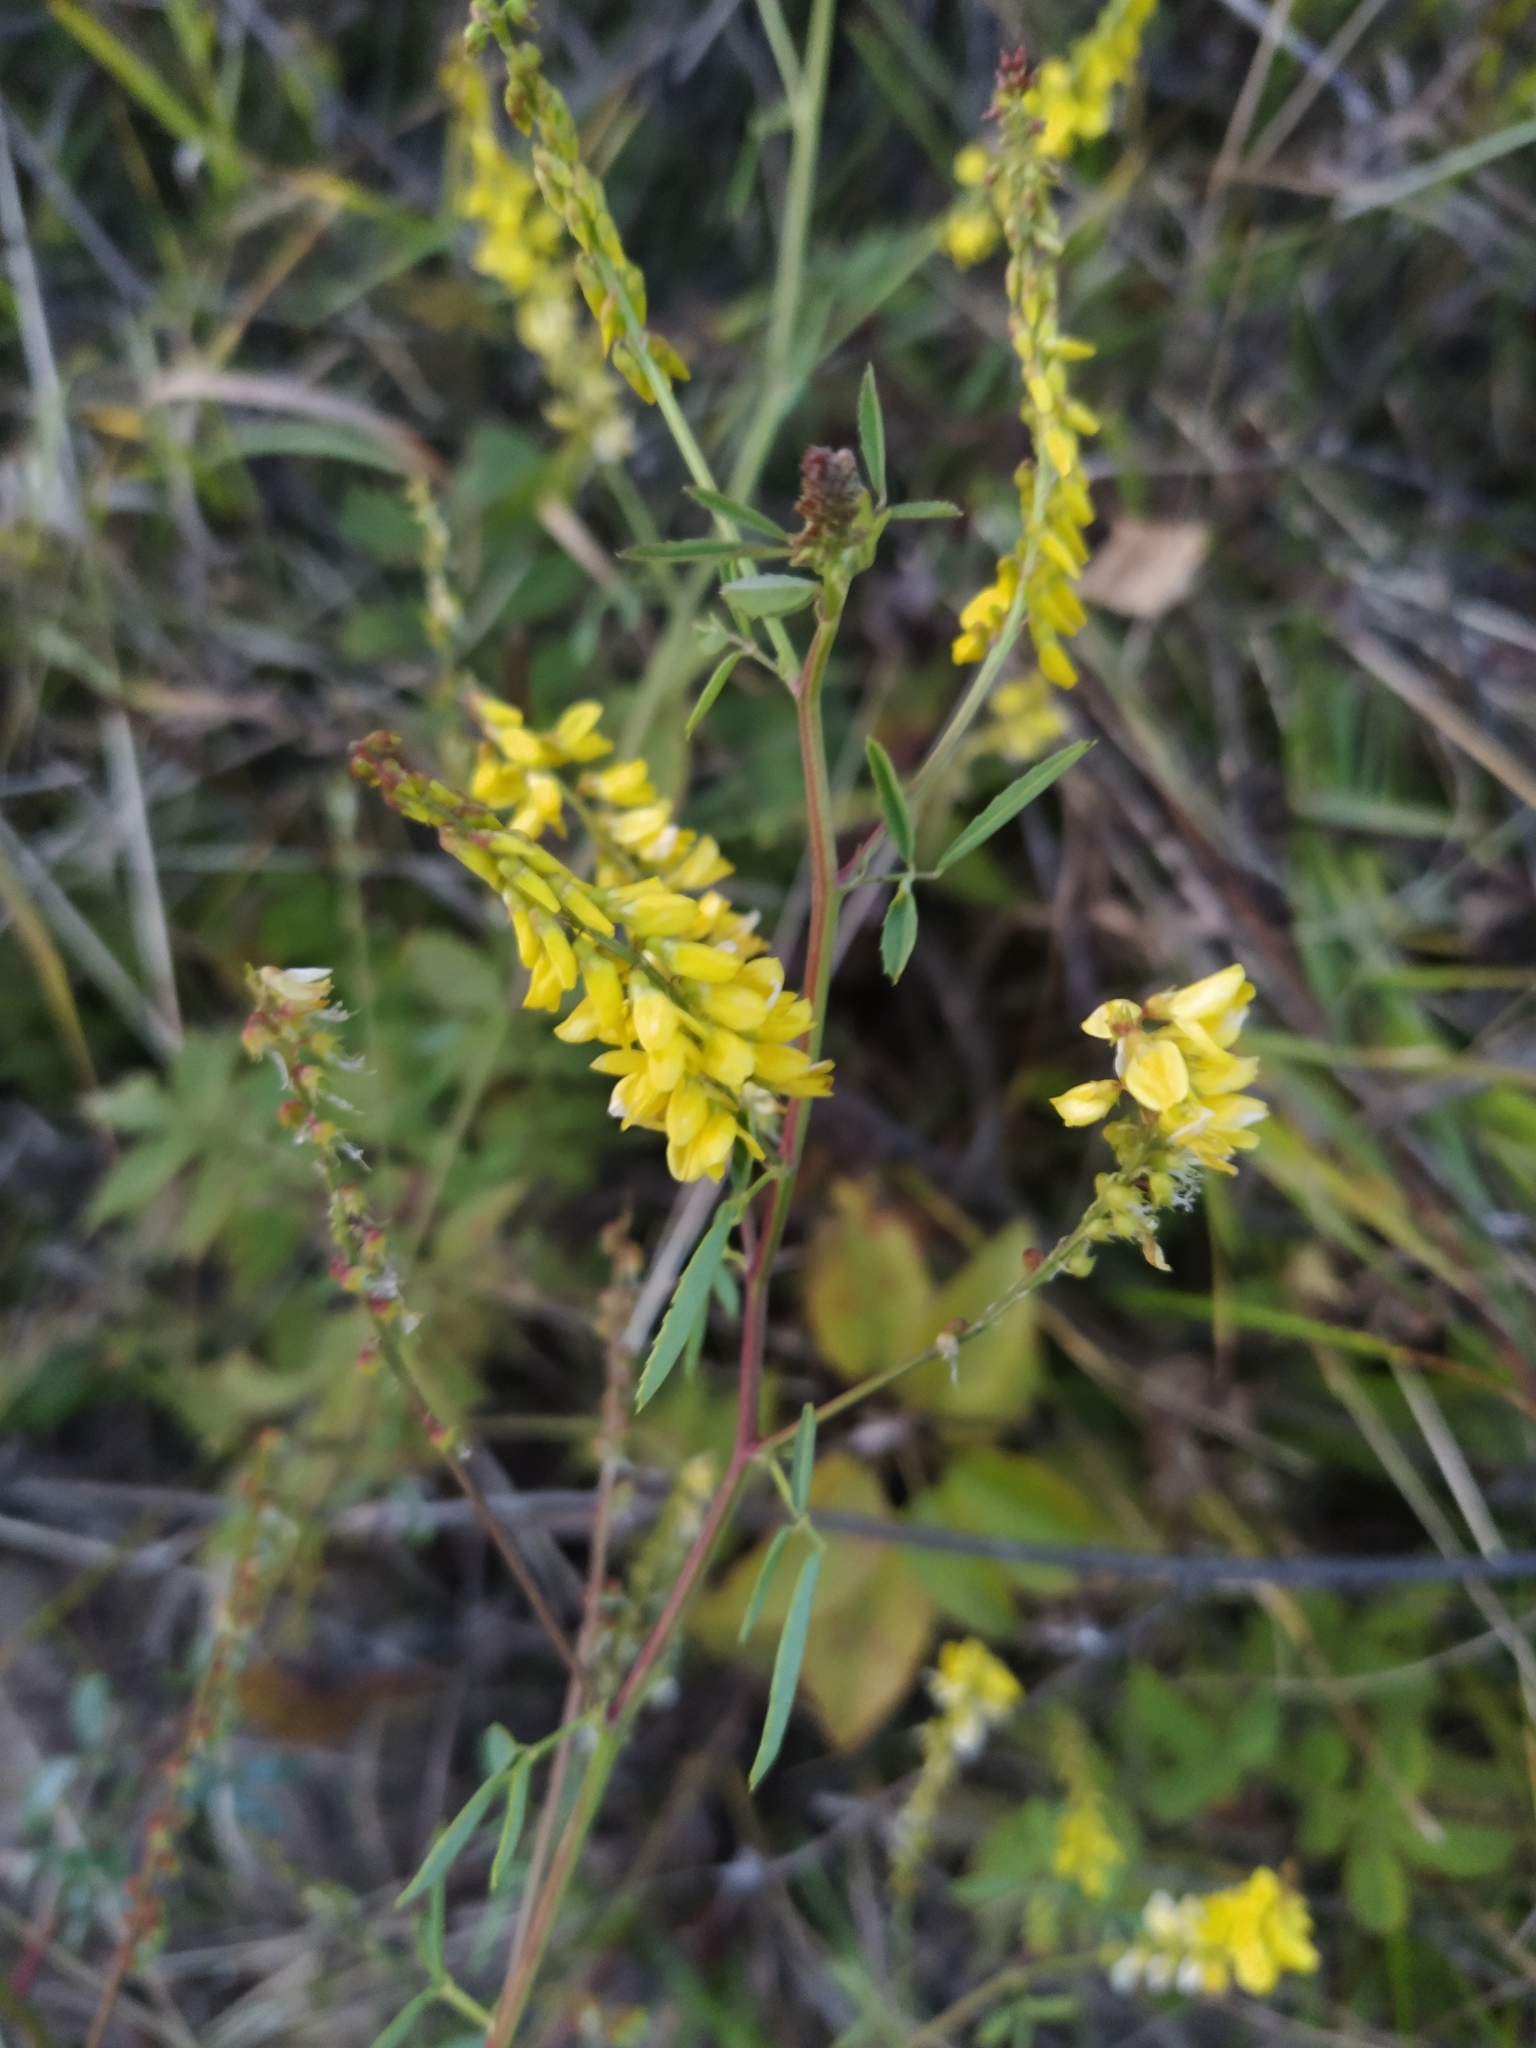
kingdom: Plantae
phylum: Tracheophyta
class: Magnoliopsida
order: Fabales
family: Fabaceae
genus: Melilotus
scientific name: Melilotus officinalis
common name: Sweetclover
